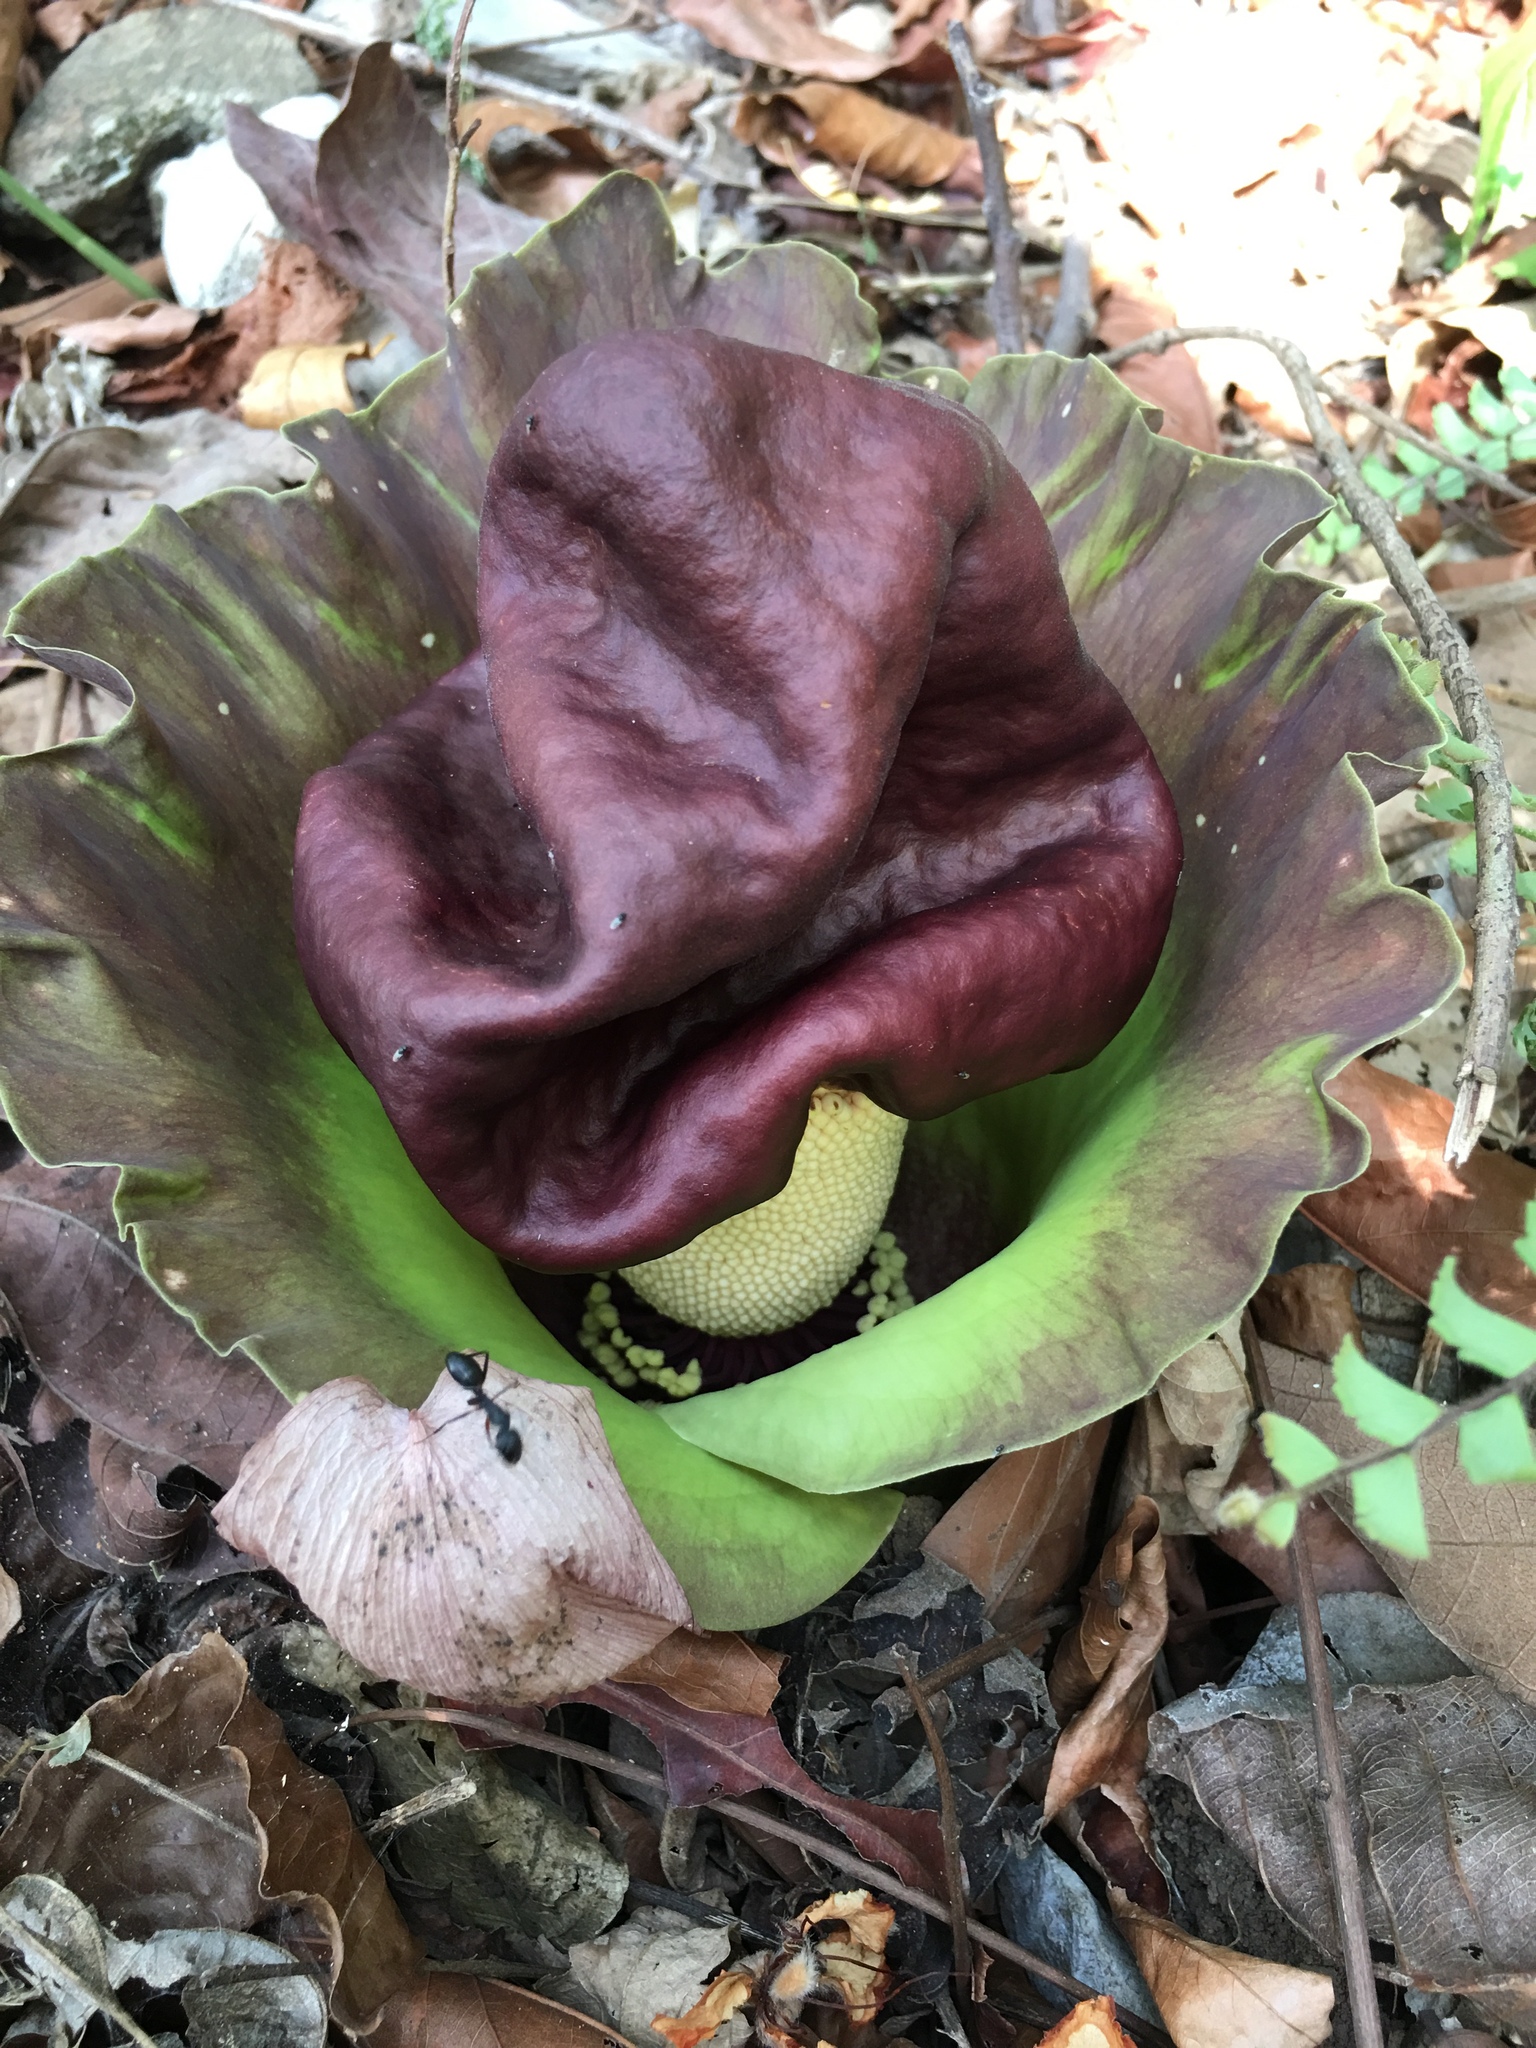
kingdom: Plantae
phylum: Tracheophyta
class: Liliopsida
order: Alismatales
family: Araceae
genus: Amorphophallus
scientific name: Amorphophallus paeoniifolius
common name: Telinga-potato
